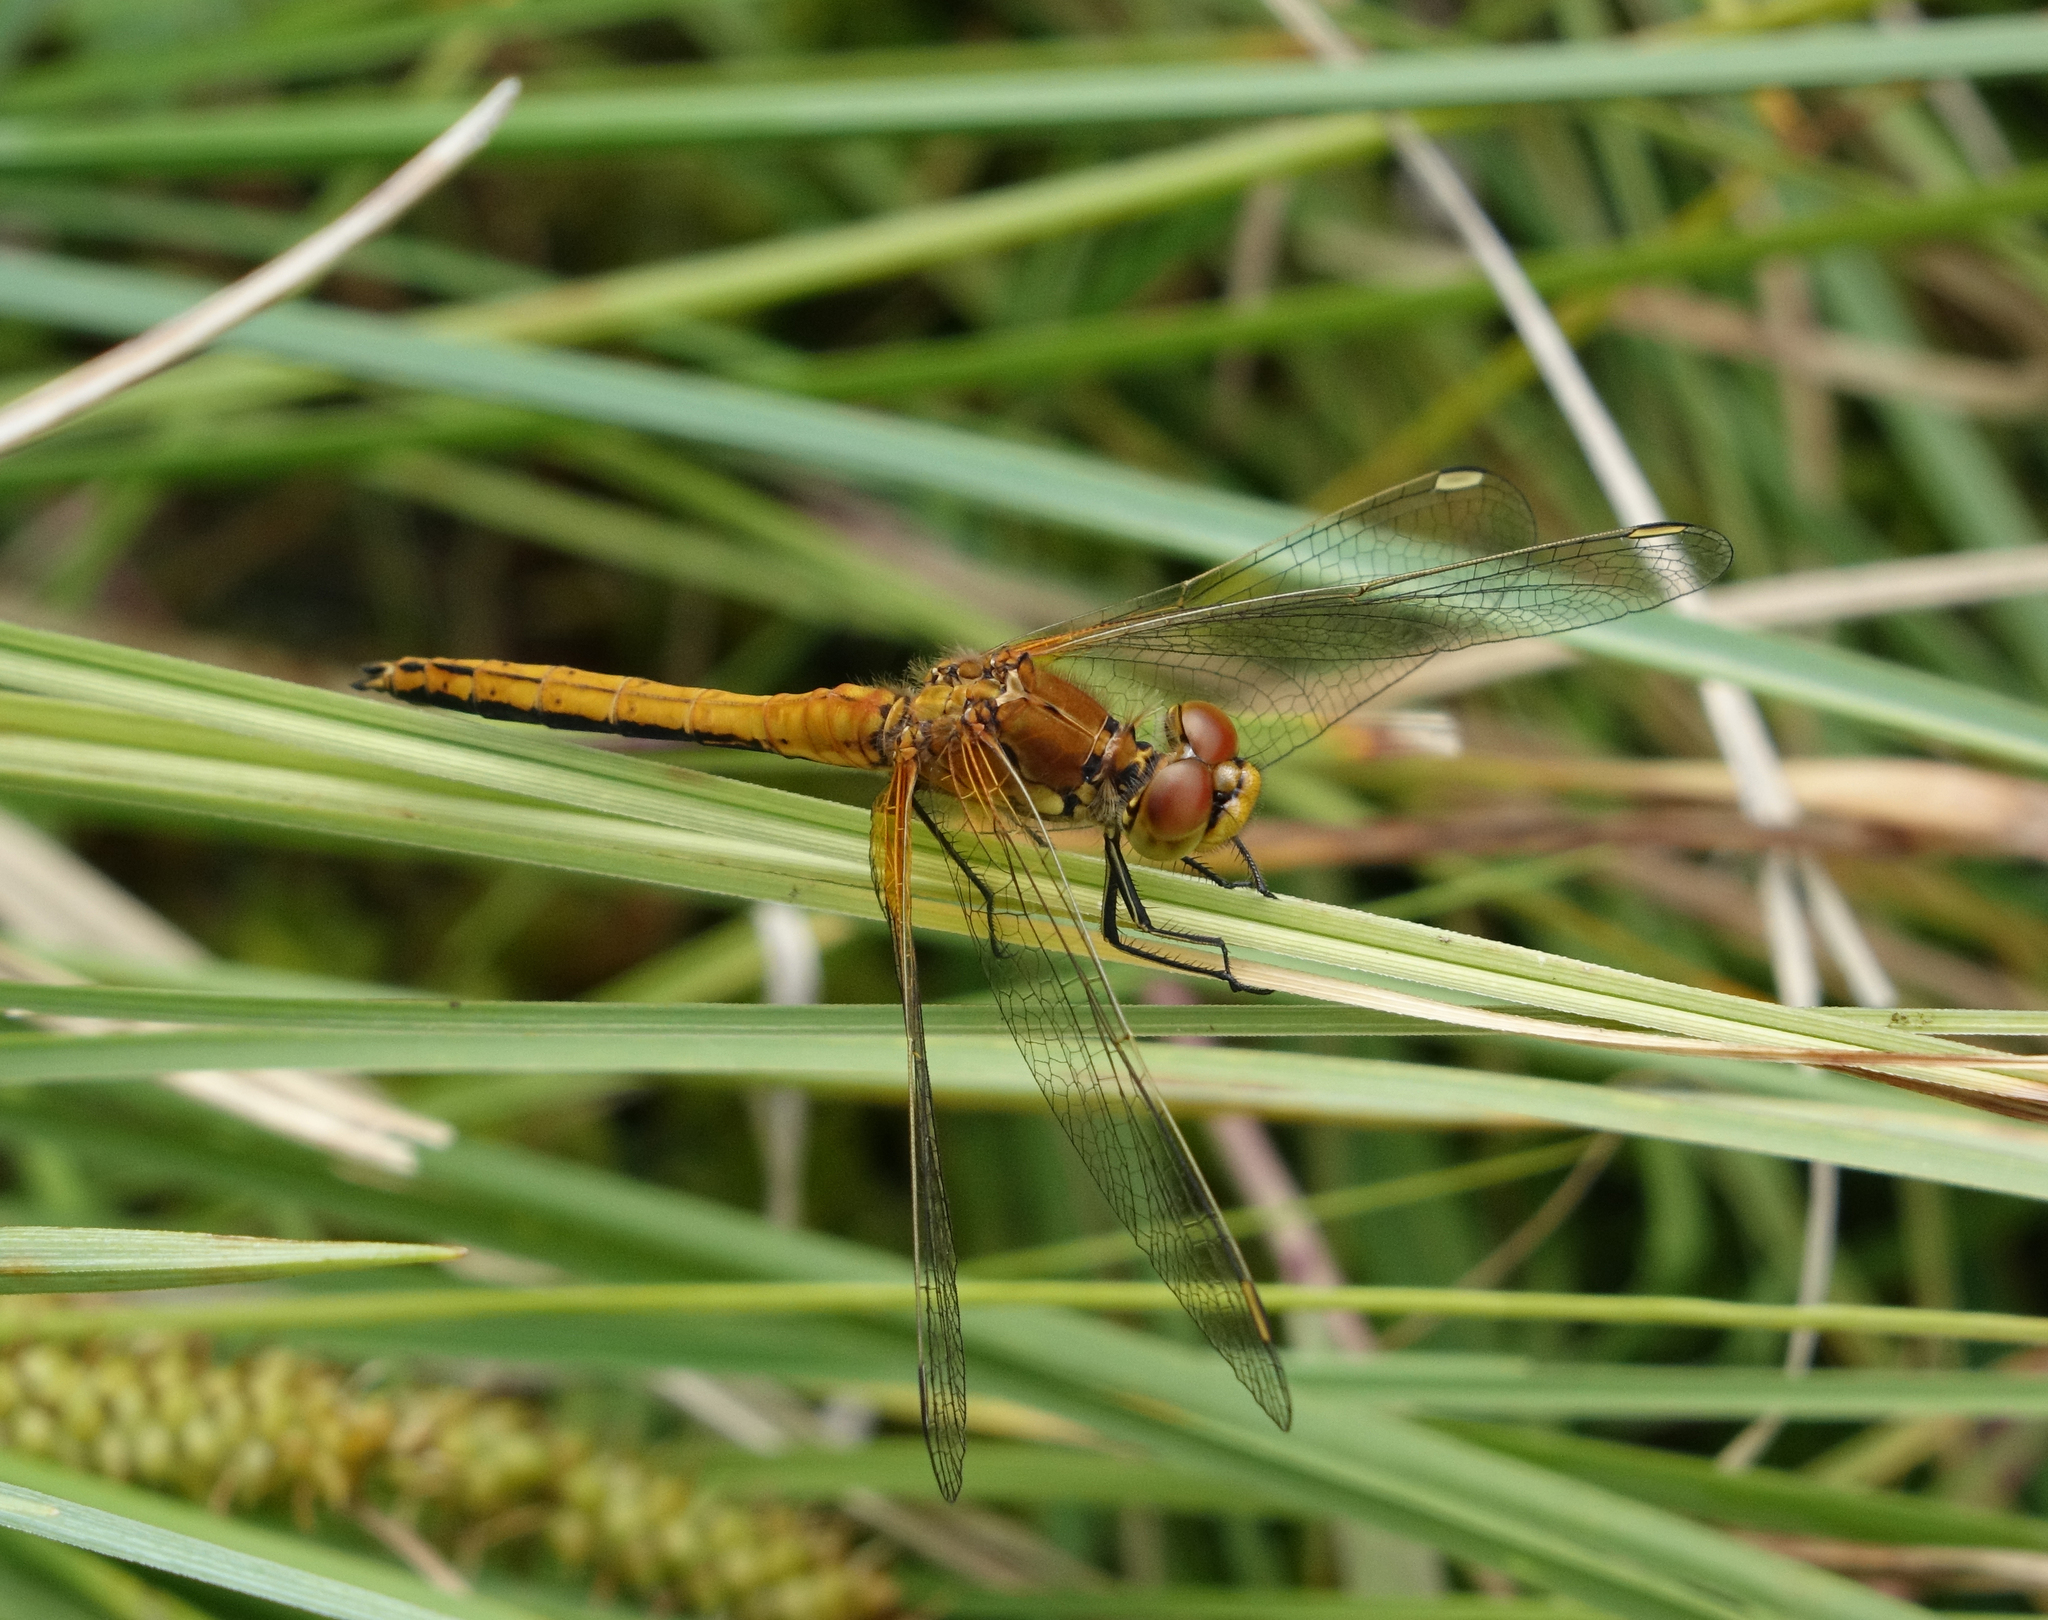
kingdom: Animalia
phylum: Arthropoda
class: Insecta
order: Odonata
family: Libellulidae
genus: Sympetrum
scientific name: Sympetrum flaveolum
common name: Yellow-winged darter
